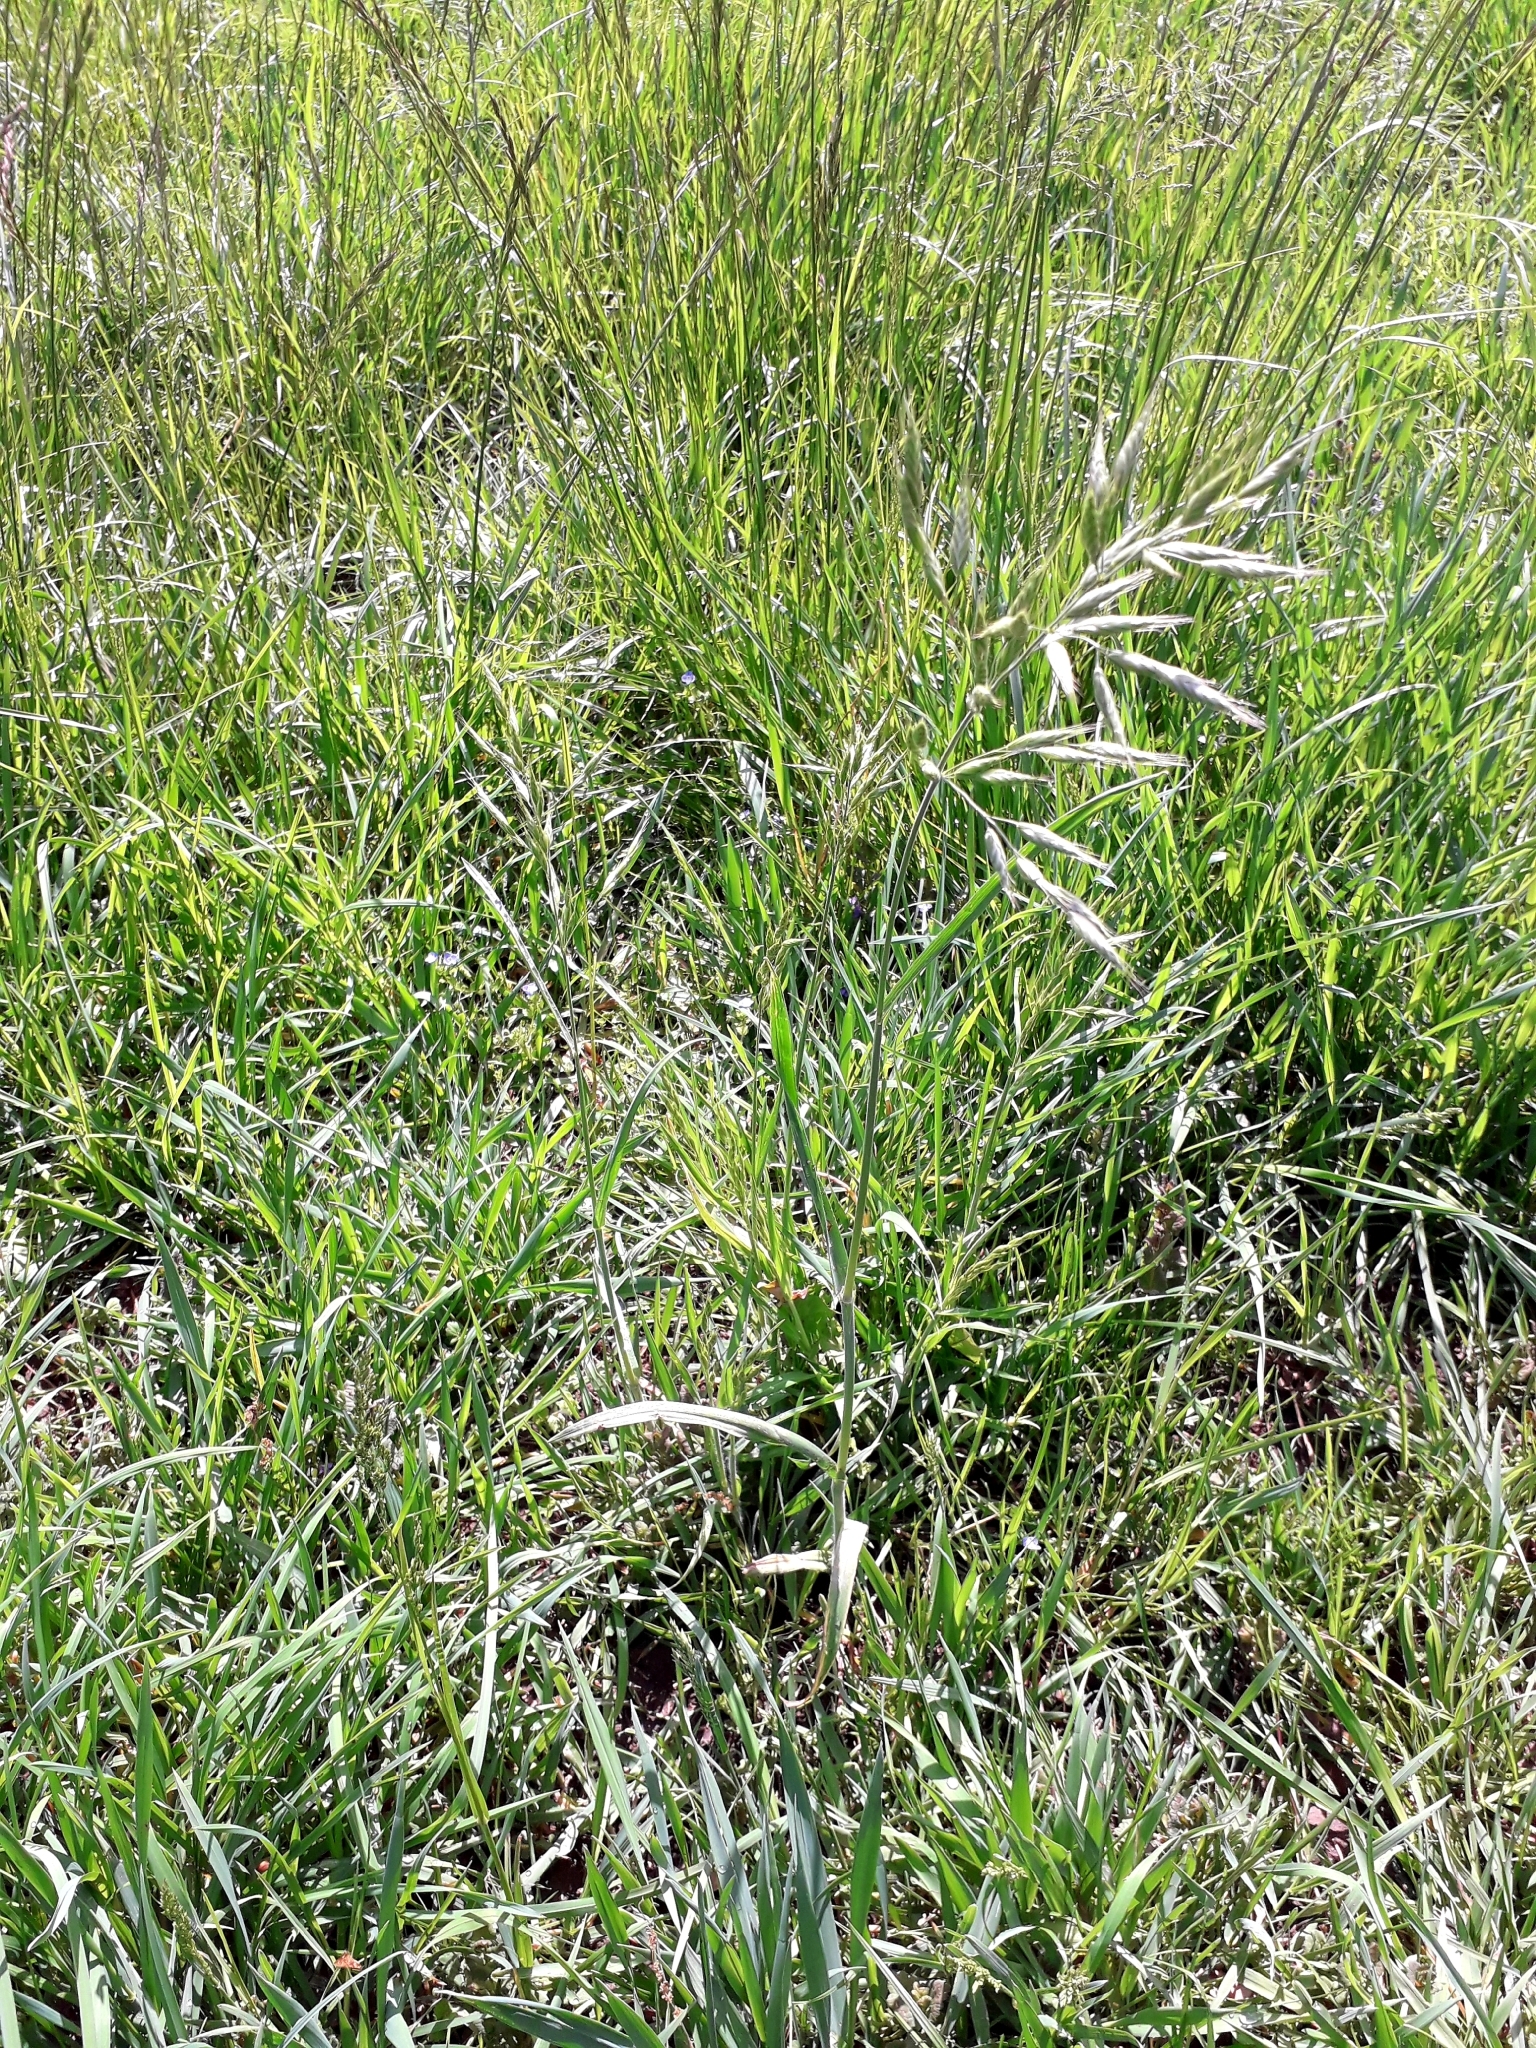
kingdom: Plantae
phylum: Tracheophyta
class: Liliopsida
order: Poales
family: Poaceae
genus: Bromus
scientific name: Bromus hordeaceus
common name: Soft brome
